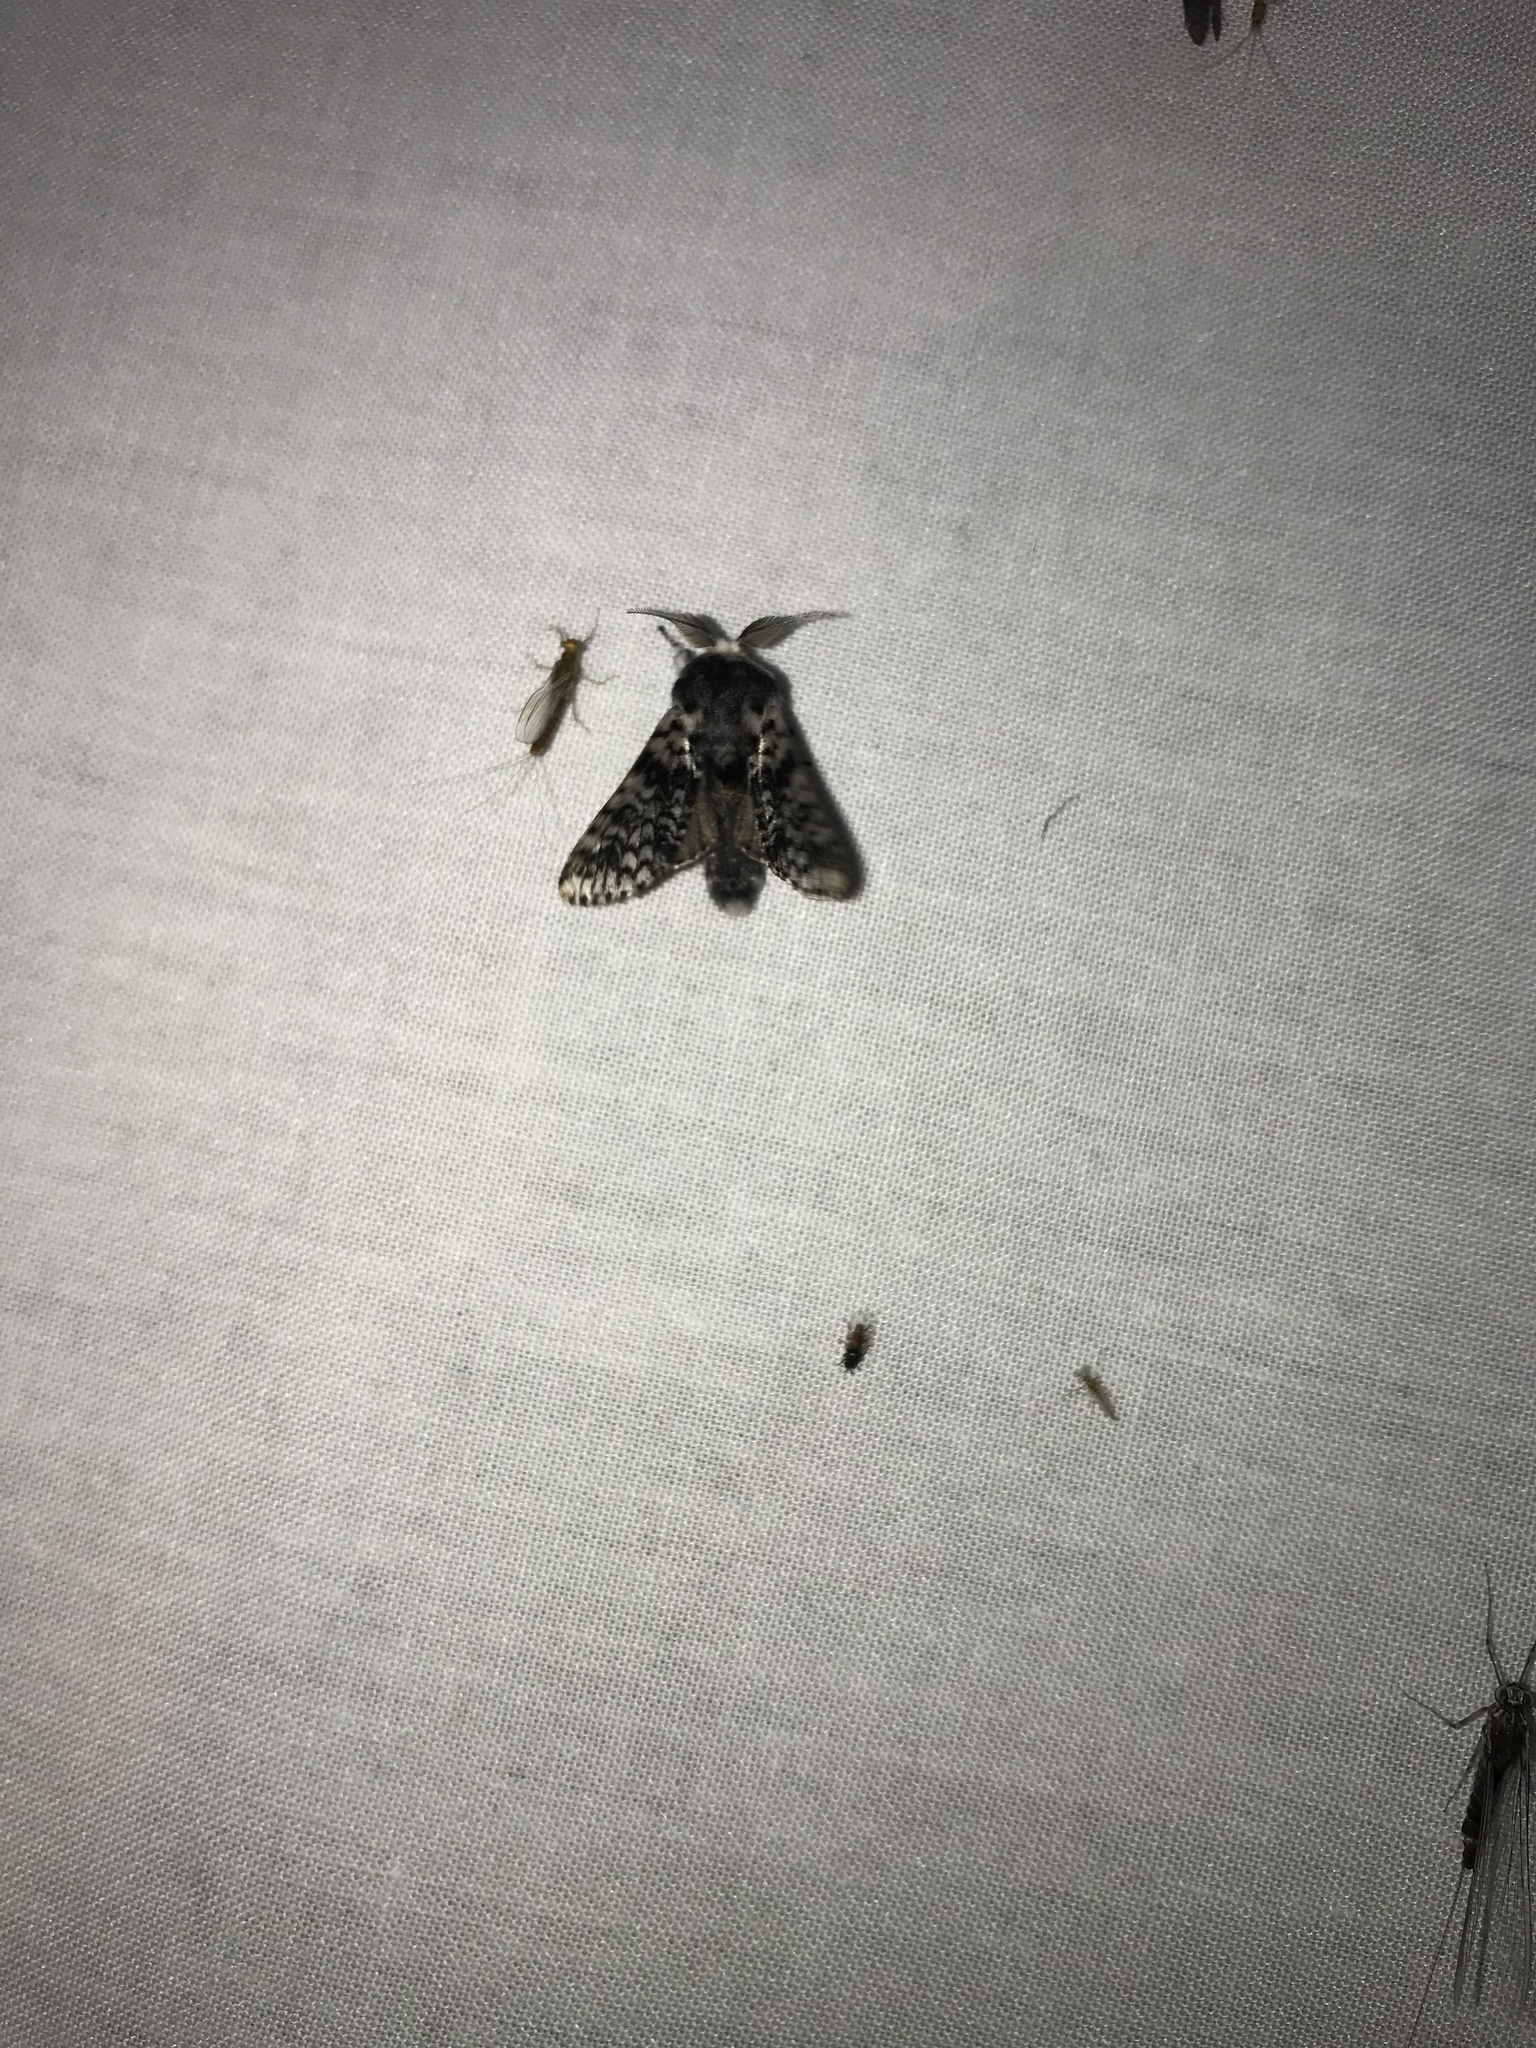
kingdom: Animalia
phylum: Arthropoda
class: Insecta
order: Lepidoptera
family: Notodontidae
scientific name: Notodontidae
